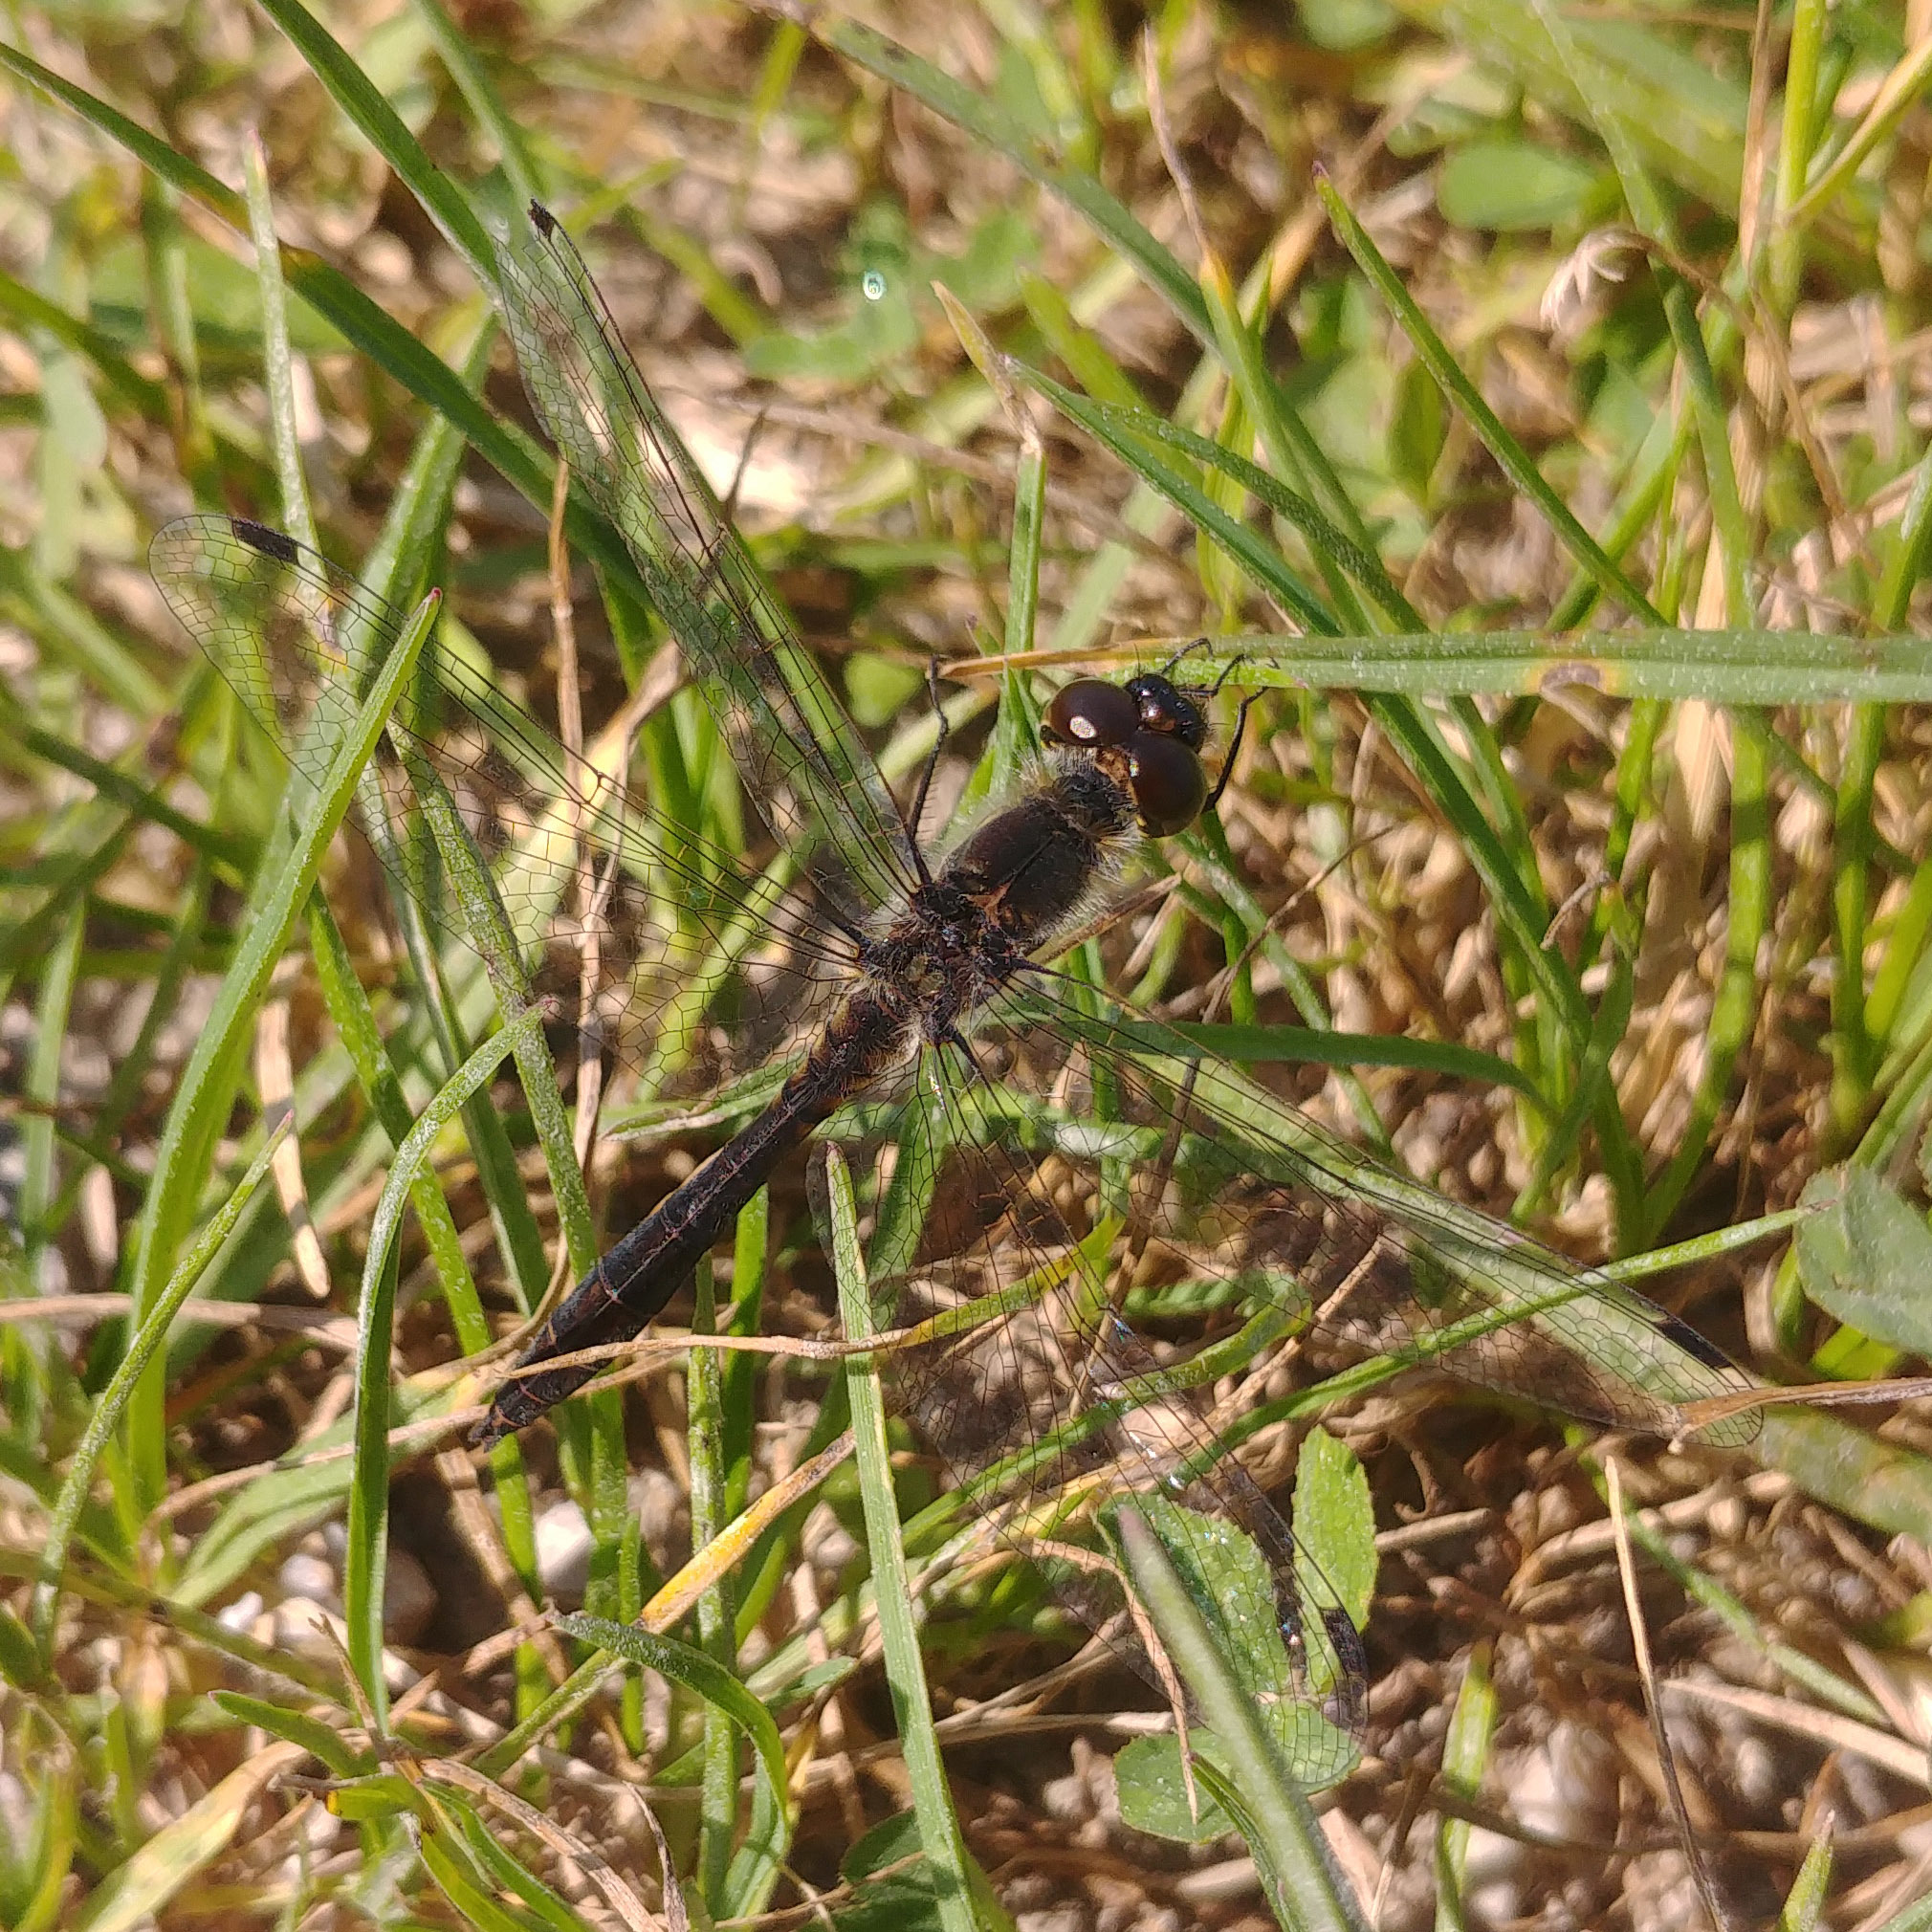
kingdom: Animalia
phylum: Arthropoda
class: Insecta
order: Odonata
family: Libellulidae
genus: Sympetrum
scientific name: Sympetrum danae
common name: Black darter
